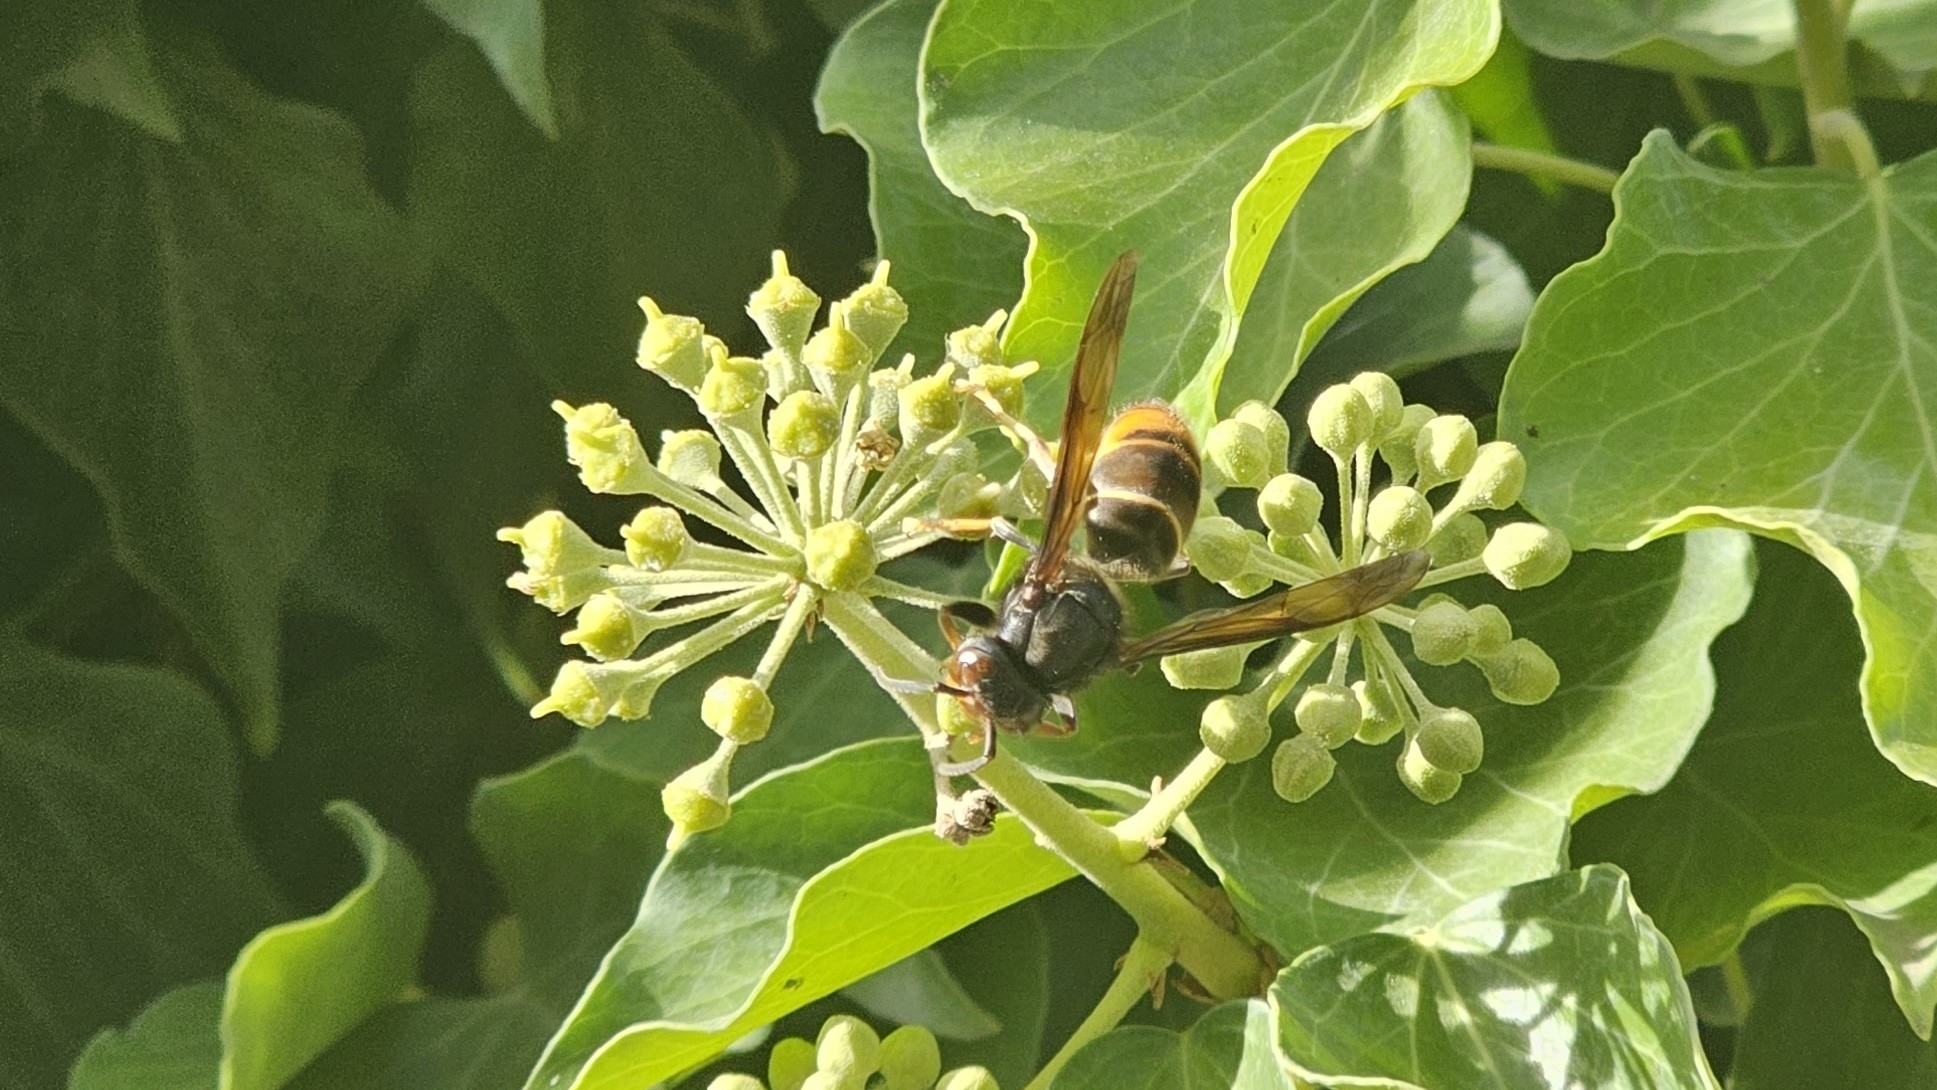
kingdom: Animalia
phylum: Arthropoda
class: Insecta
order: Hymenoptera
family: Vespidae
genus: Vespa
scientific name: Vespa velutina
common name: Asian hornet
